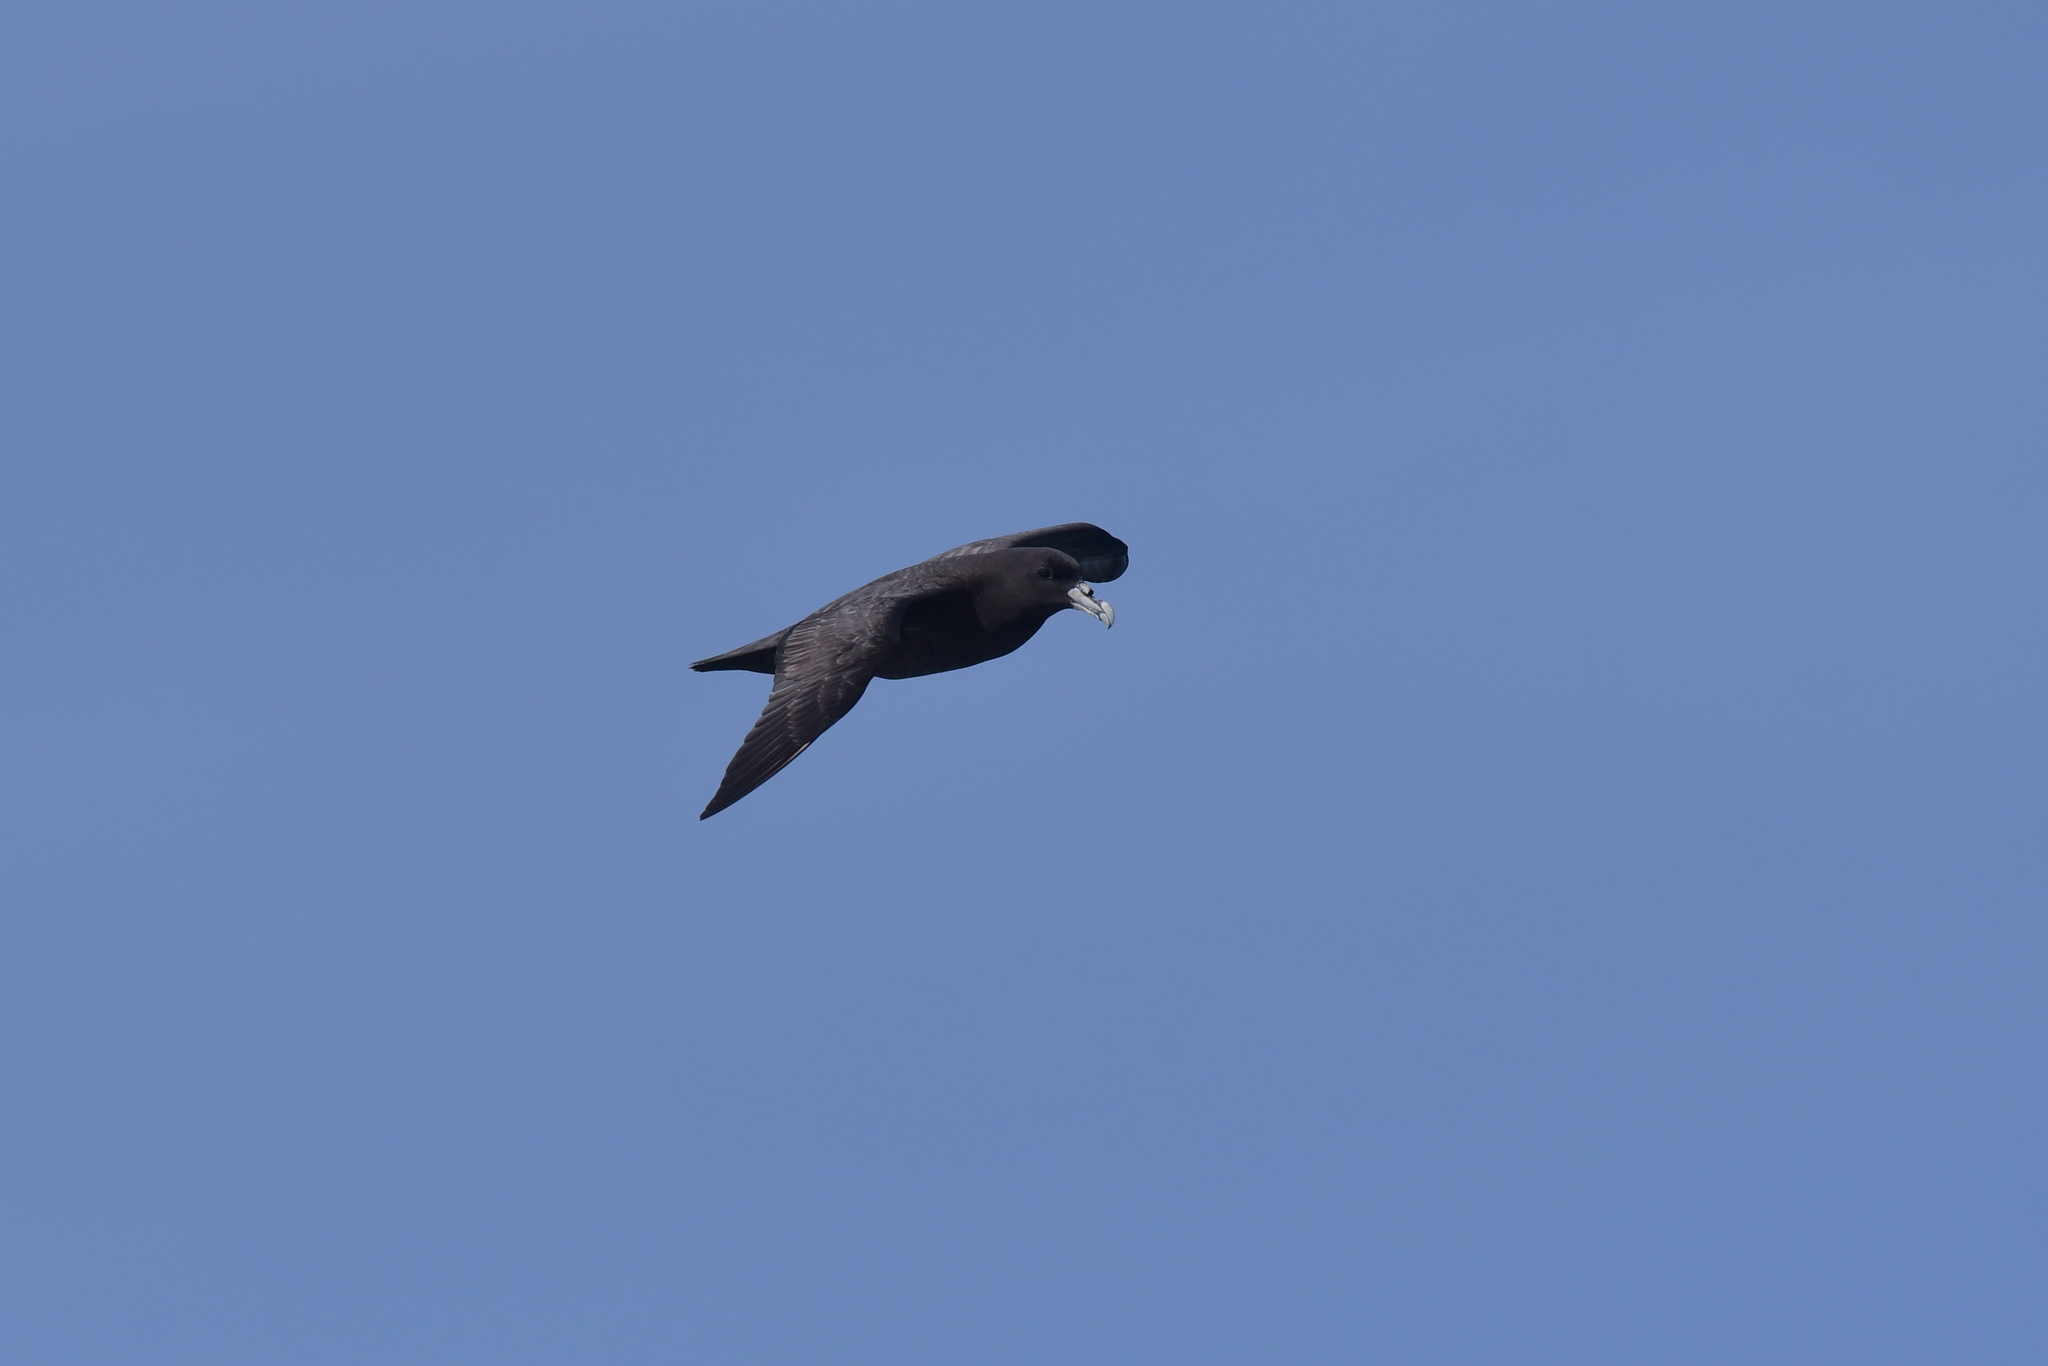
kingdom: Animalia
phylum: Chordata
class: Aves
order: Procellariiformes
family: Procellariidae
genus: Procellaria
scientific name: Procellaria aequinoctialis
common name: White-chinned petrel
